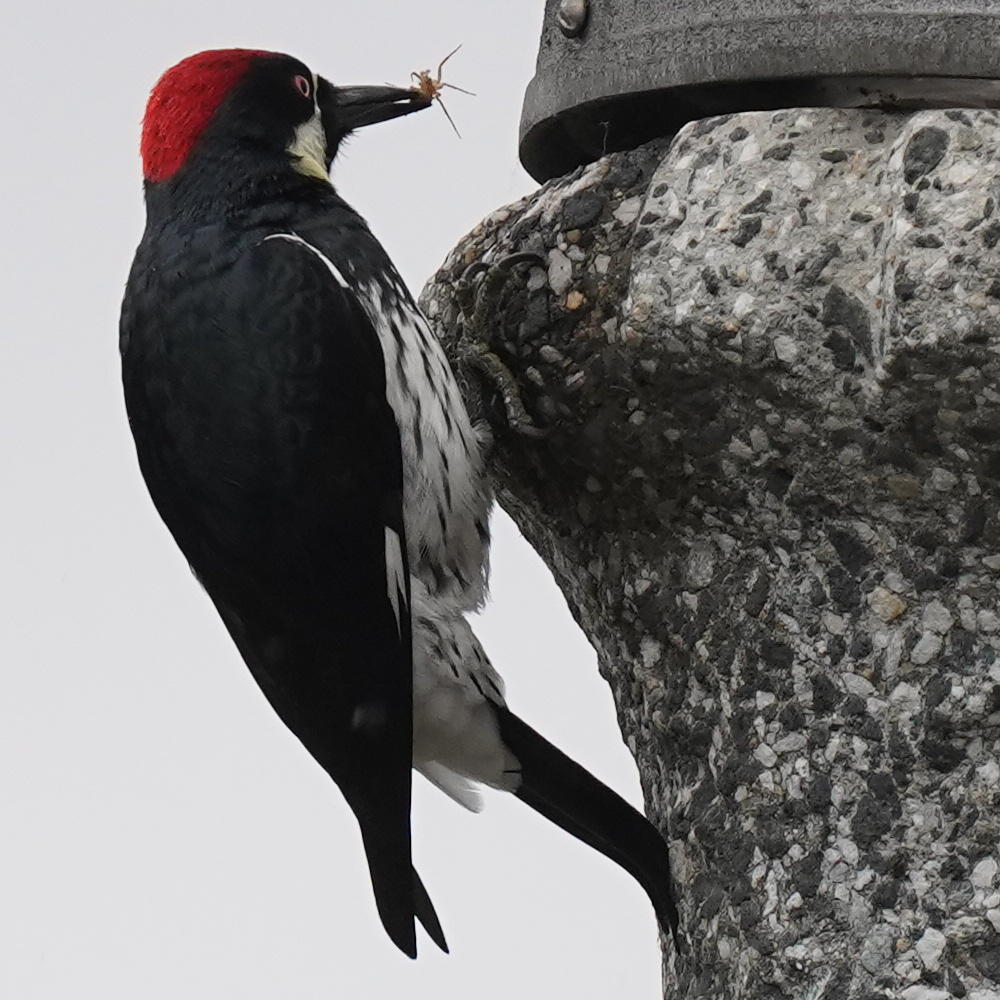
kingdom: Animalia
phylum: Chordata
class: Aves
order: Piciformes
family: Picidae
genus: Melanerpes
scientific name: Melanerpes formicivorus
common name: Acorn woodpecker
